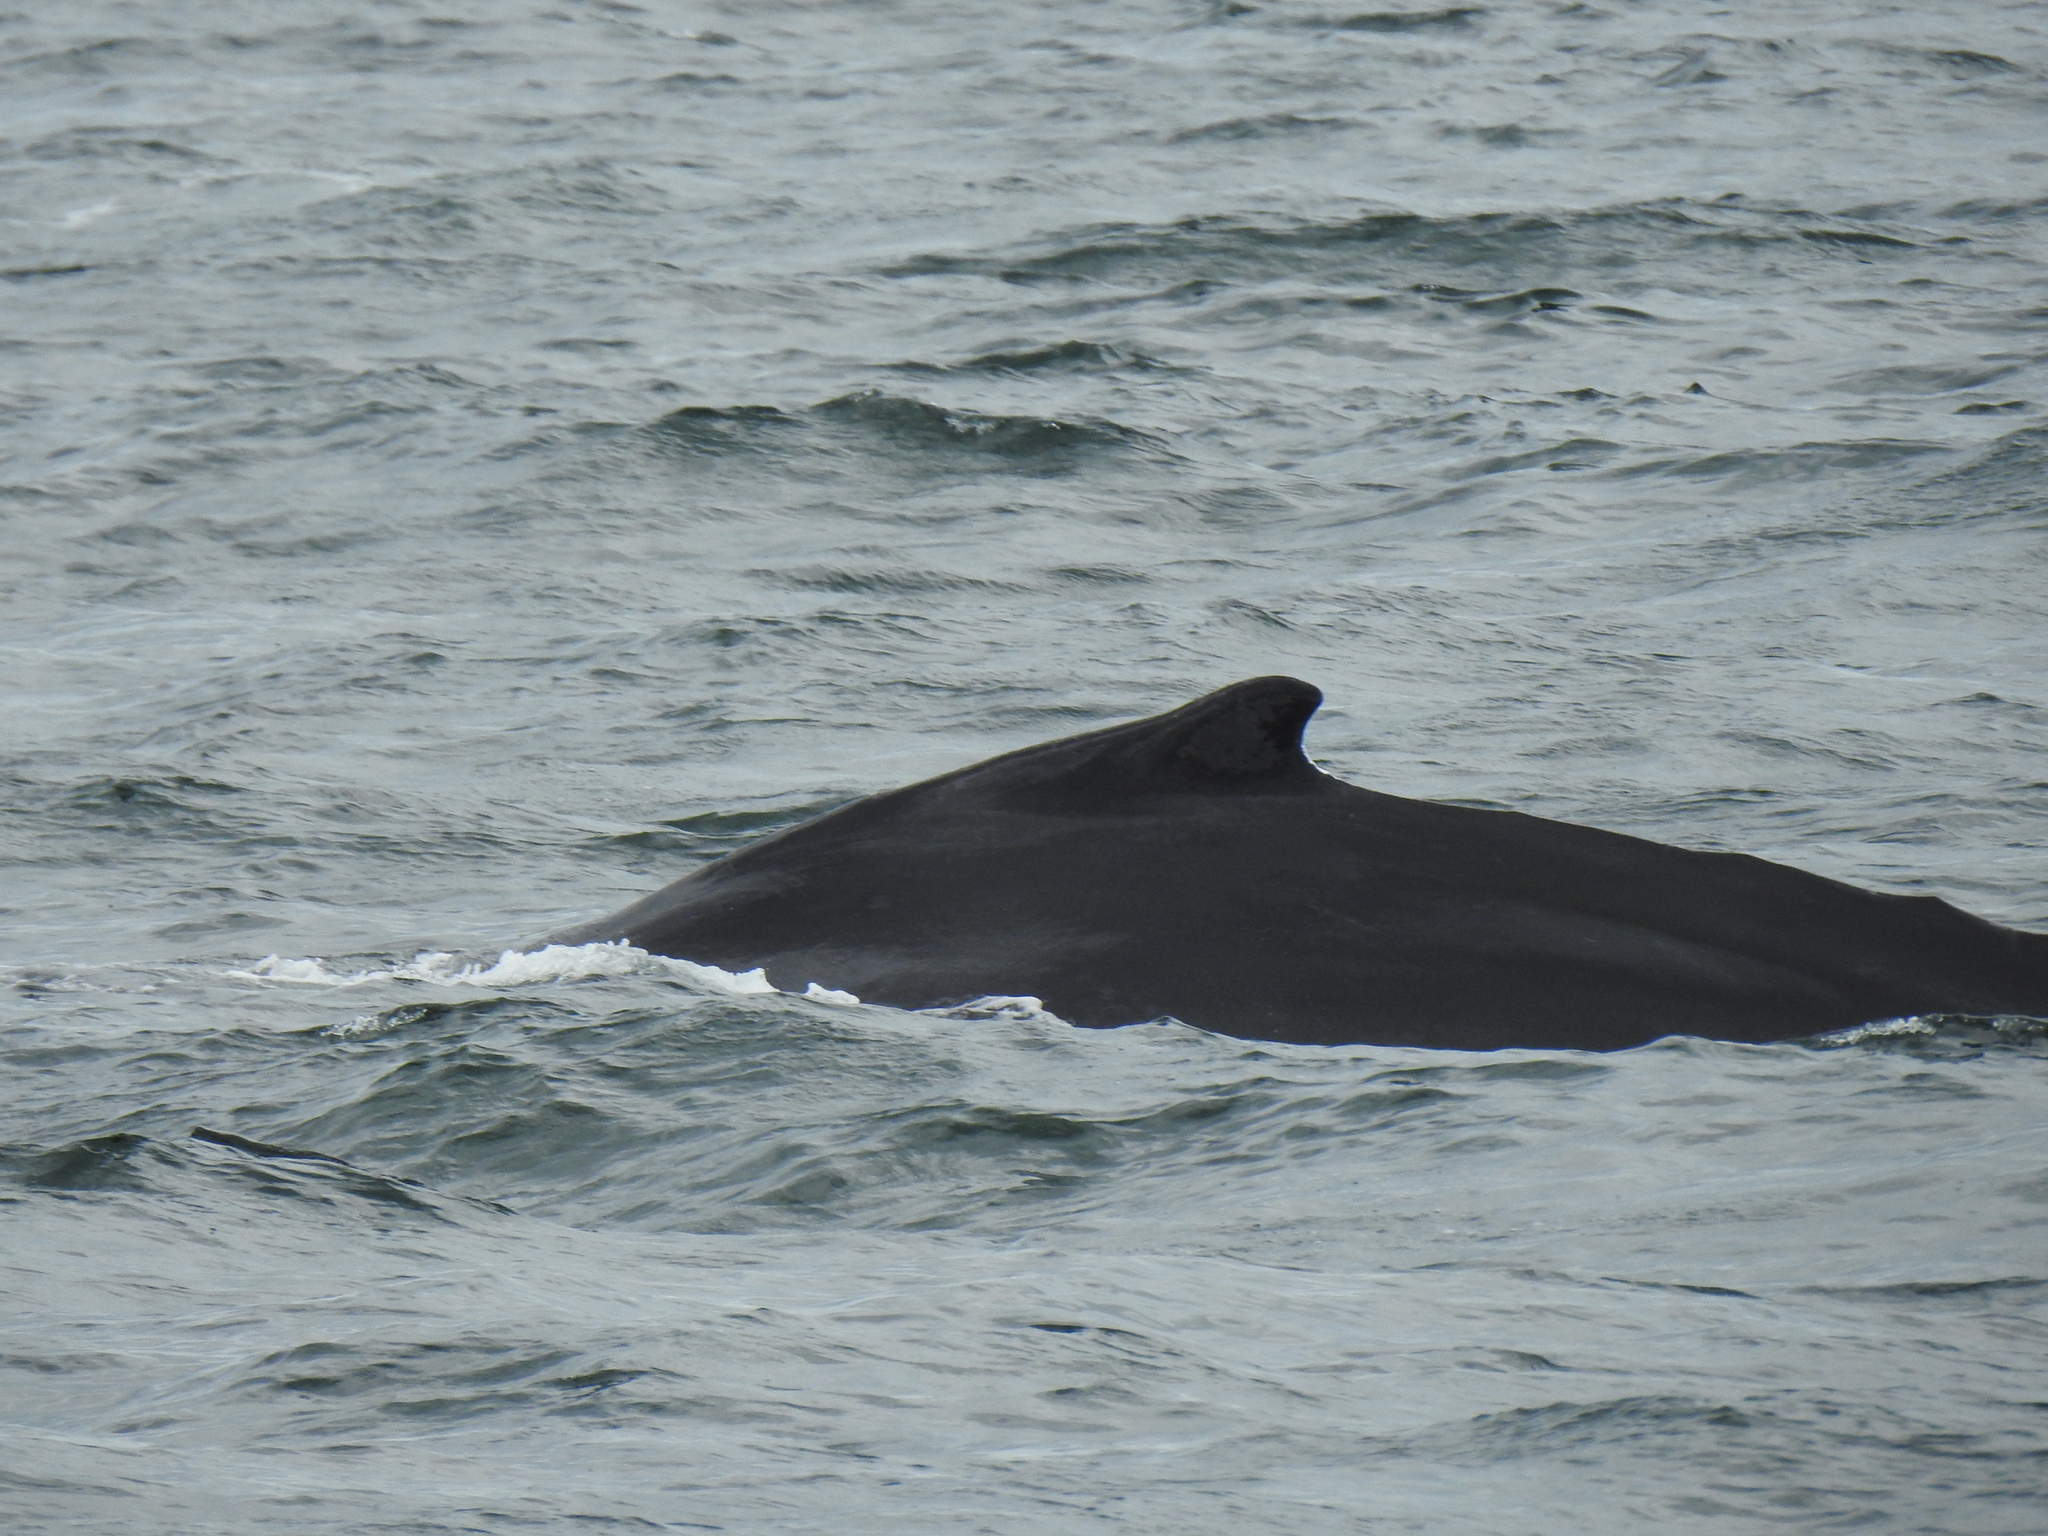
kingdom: Animalia
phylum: Chordata
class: Mammalia
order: Cetacea
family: Balaenopteridae
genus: Megaptera
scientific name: Megaptera novaeangliae
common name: Humpback whale
